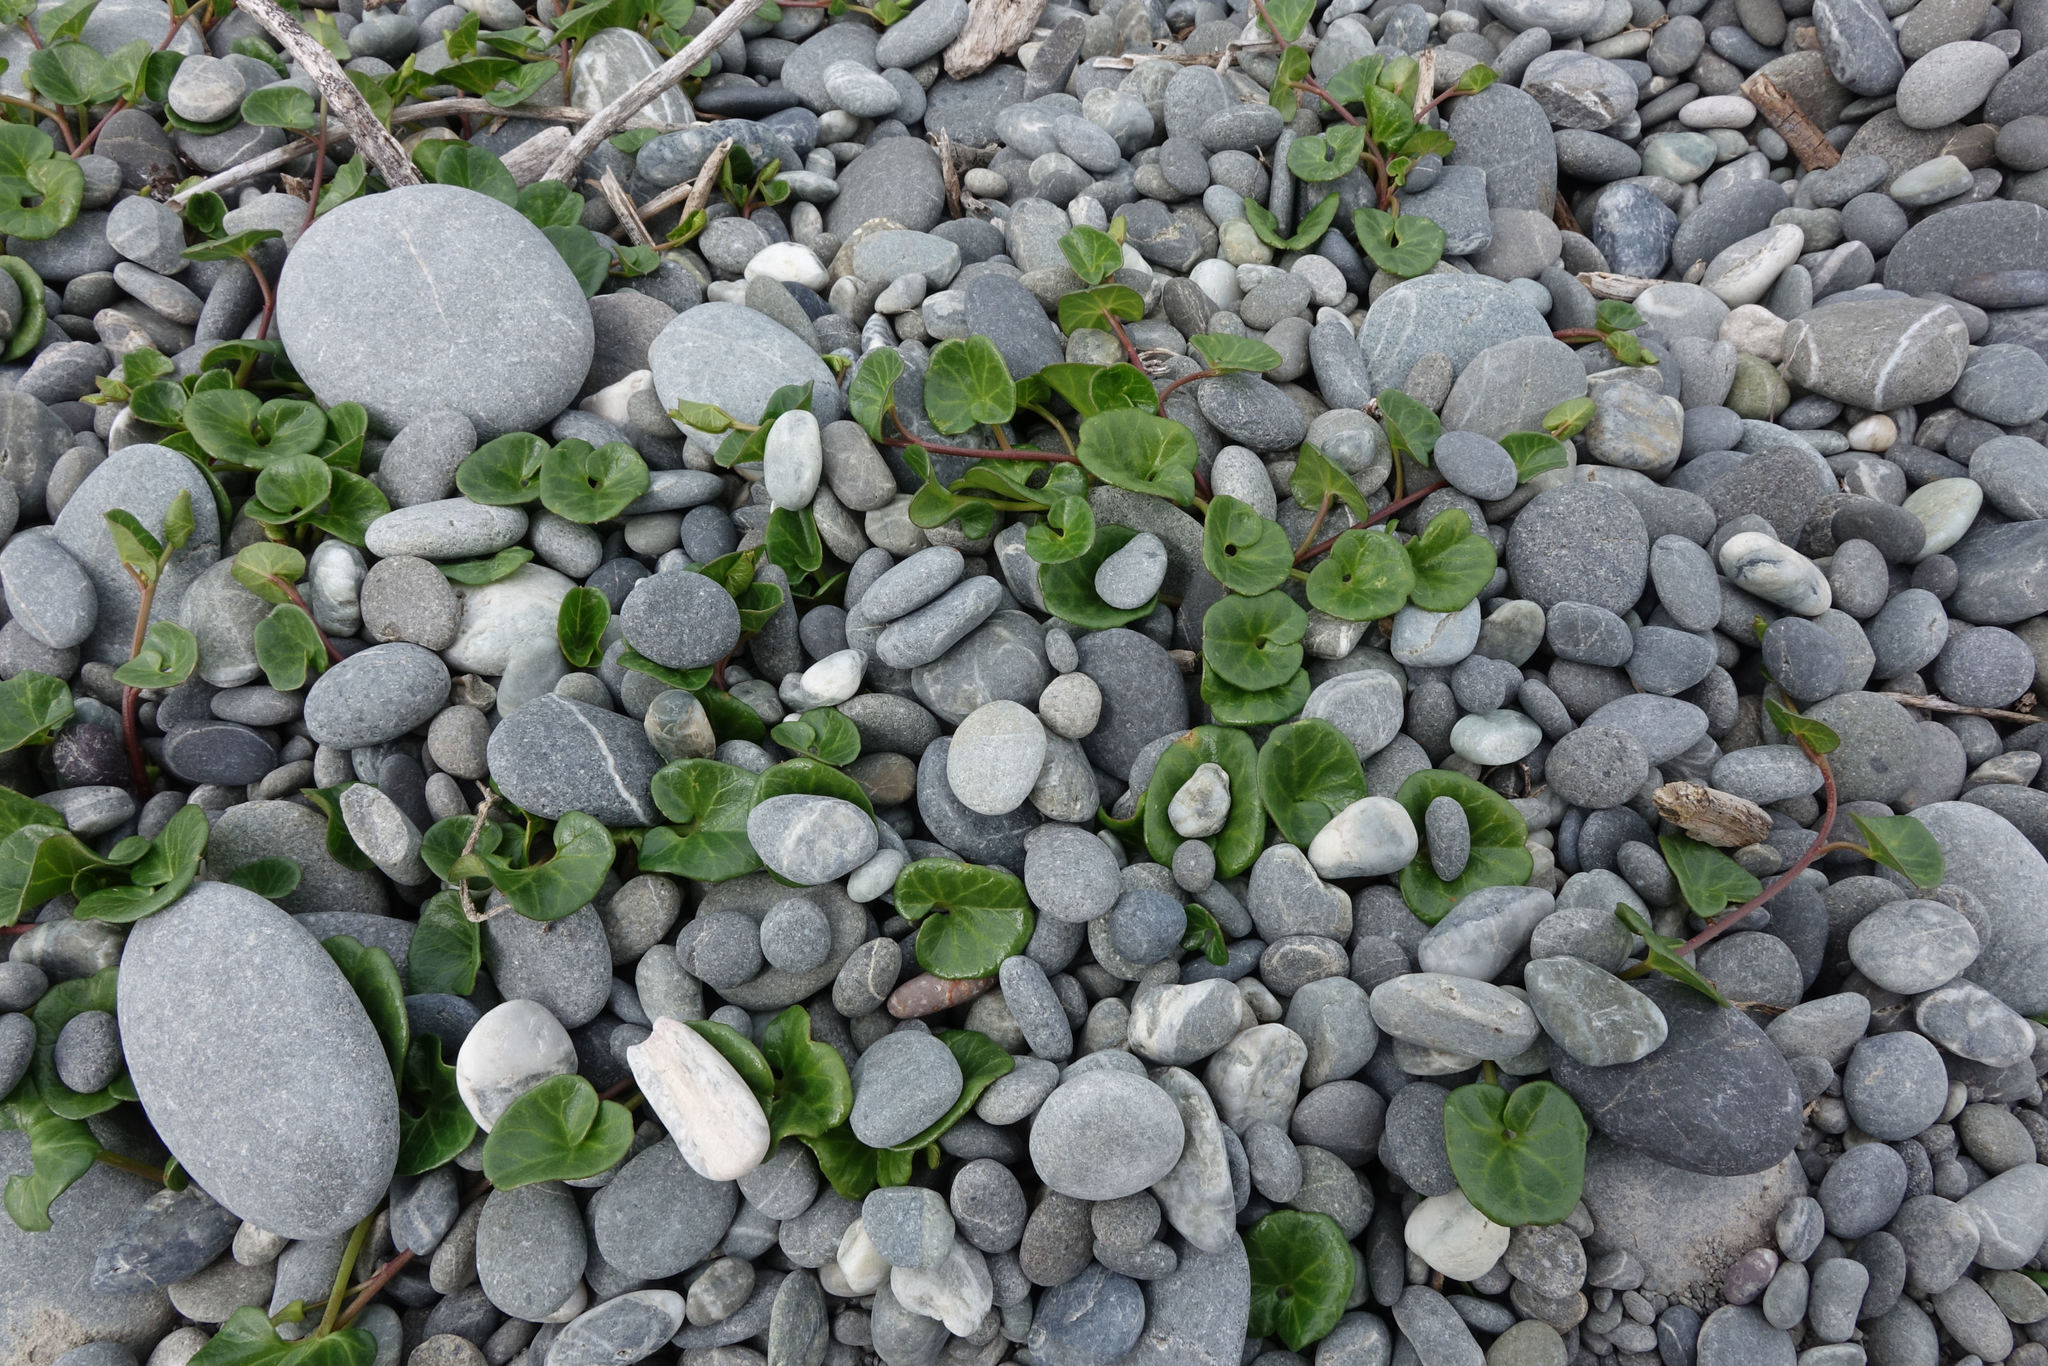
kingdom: Plantae
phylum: Tracheophyta
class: Magnoliopsida
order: Solanales
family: Convolvulaceae
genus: Calystegia
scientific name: Calystegia soldanella
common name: Sea bindweed
